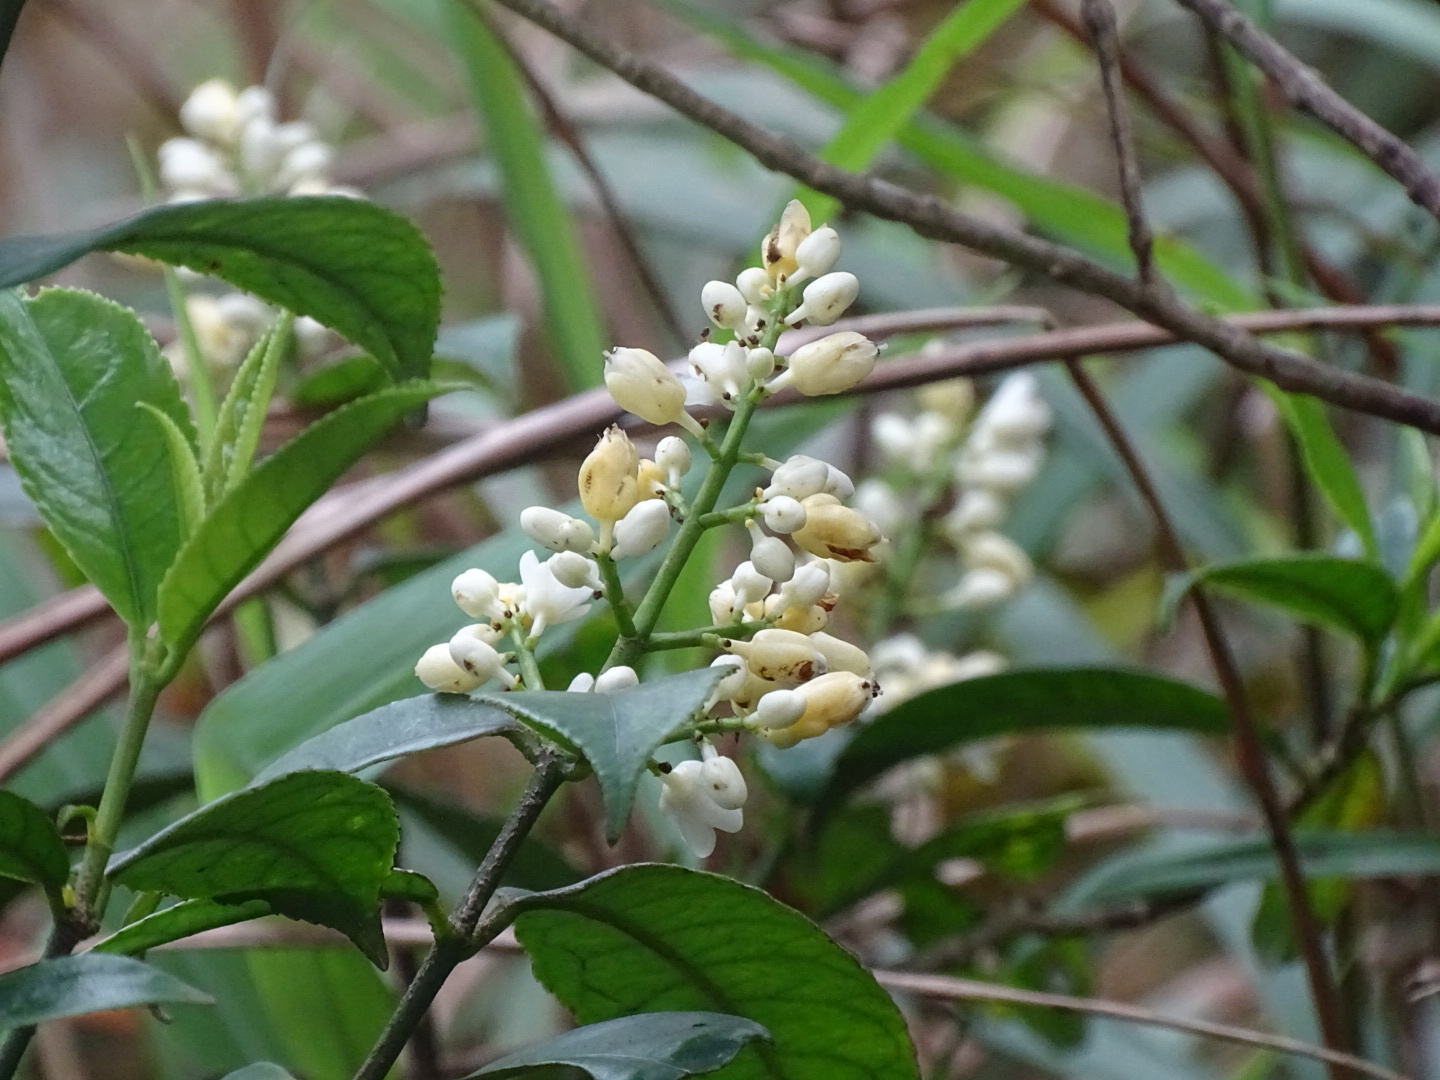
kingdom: Plantae
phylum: Tracheophyta
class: Magnoliopsida
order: Crossosomatales
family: Staphyleaceae
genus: Turpinia
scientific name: Turpinia arguta
